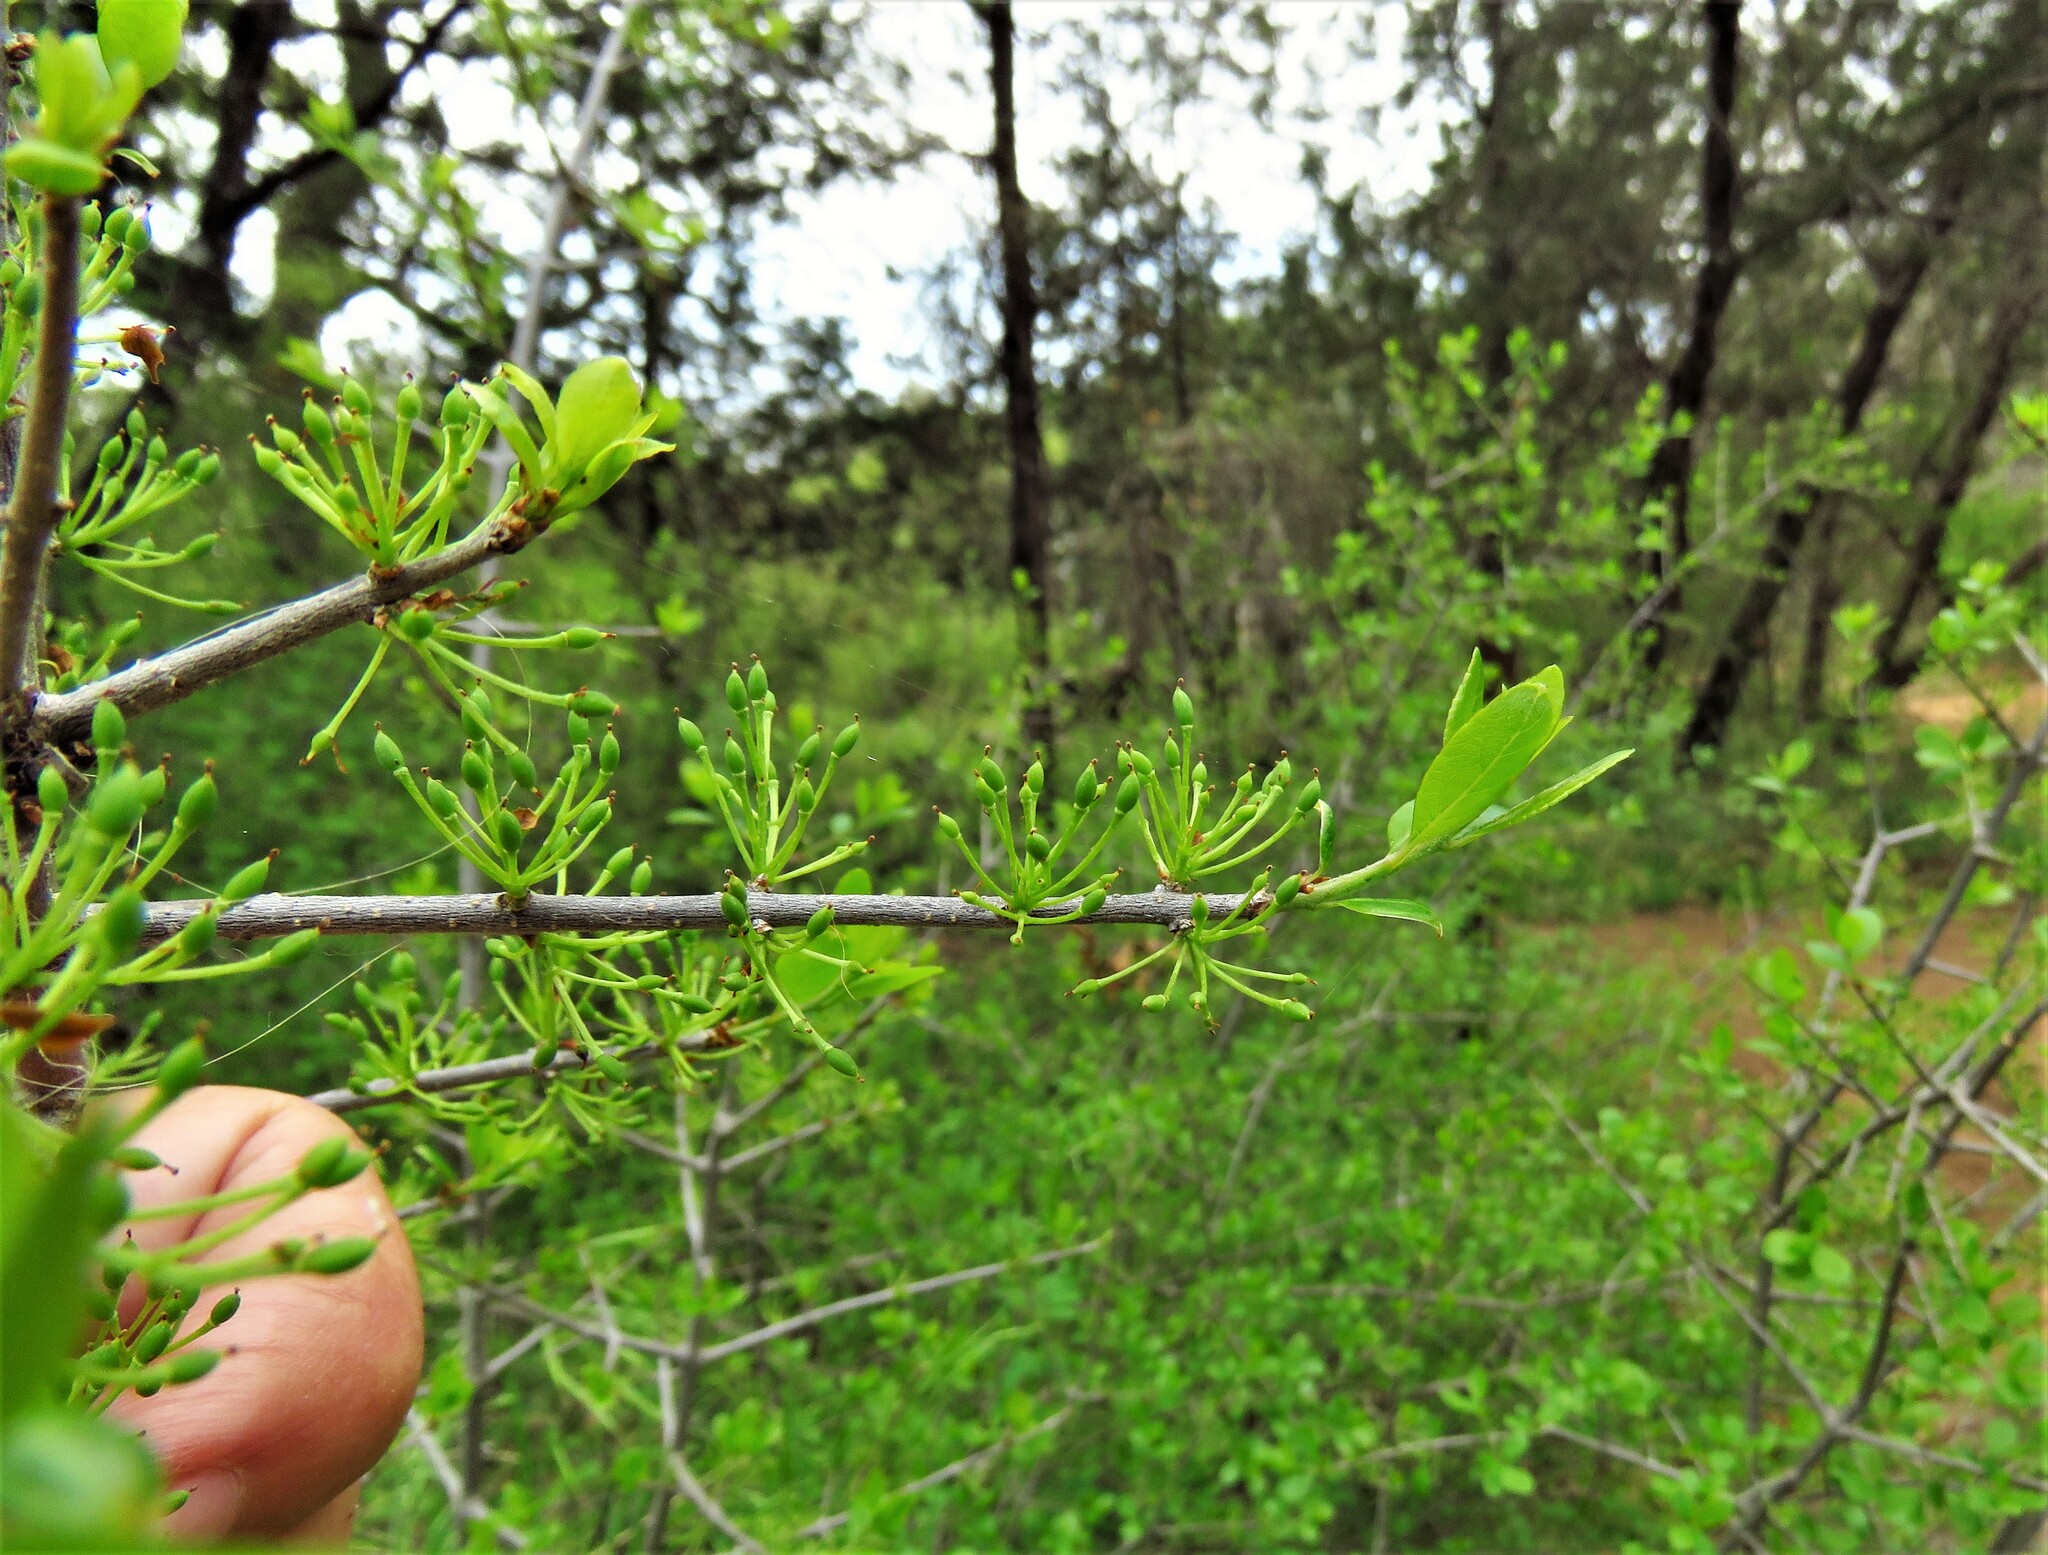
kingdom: Plantae
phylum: Tracheophyta
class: Magnoliopsida
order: Lamiales
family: Oleaceae
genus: Forestiera
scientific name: Forestiera pubescens
